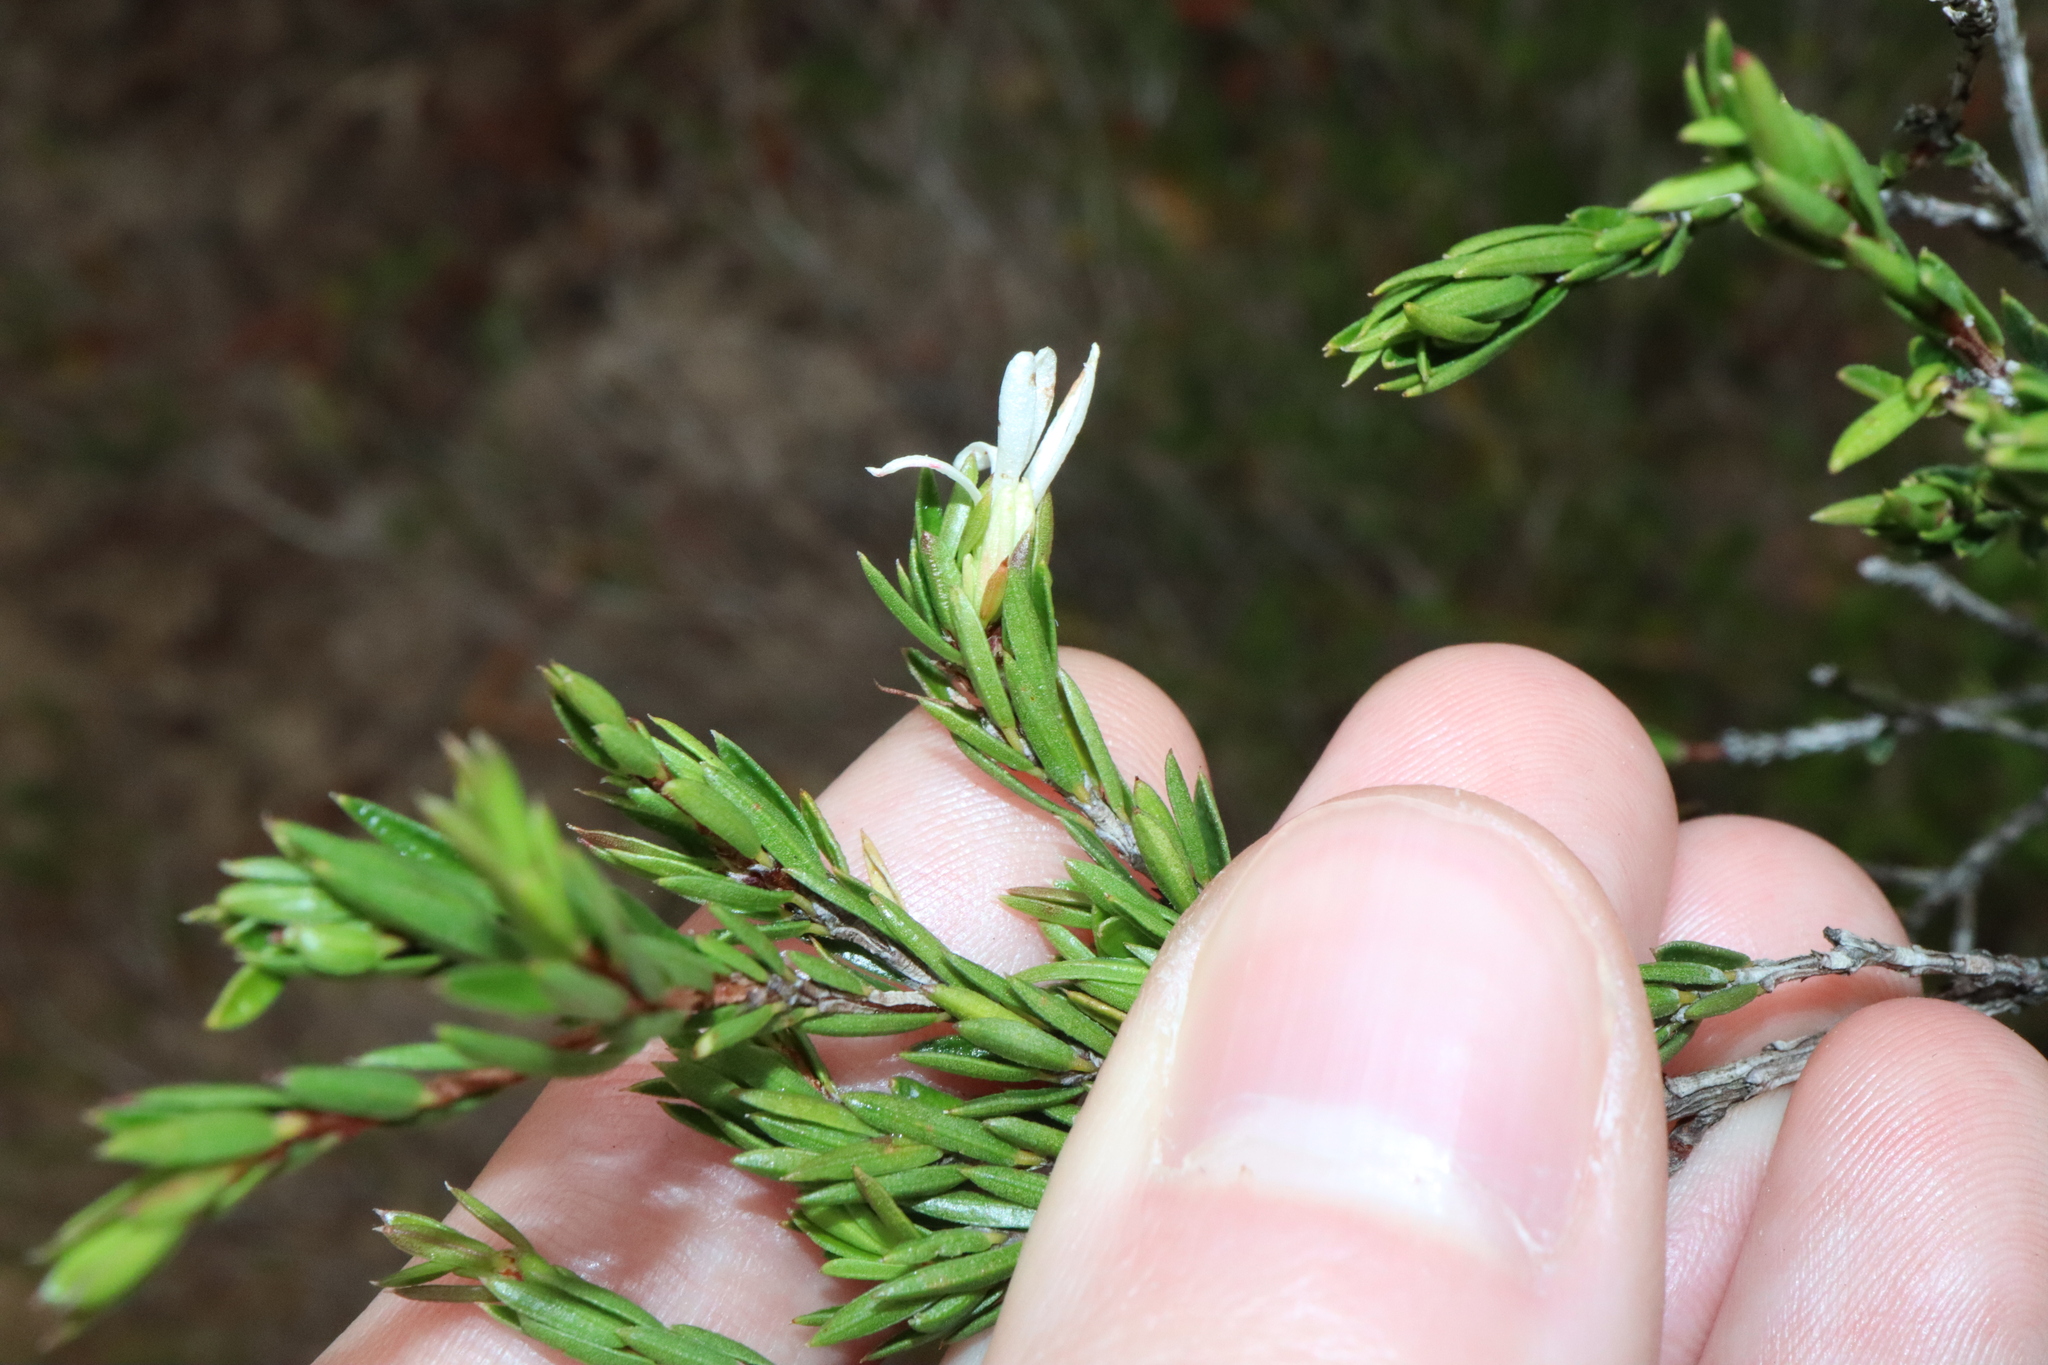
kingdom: Plantae
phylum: Tracheophyta
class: Magnoliopsida
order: Malpighiales
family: Picrodendraceae
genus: Pseudanthus
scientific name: Pseudanthus pimeleoides
